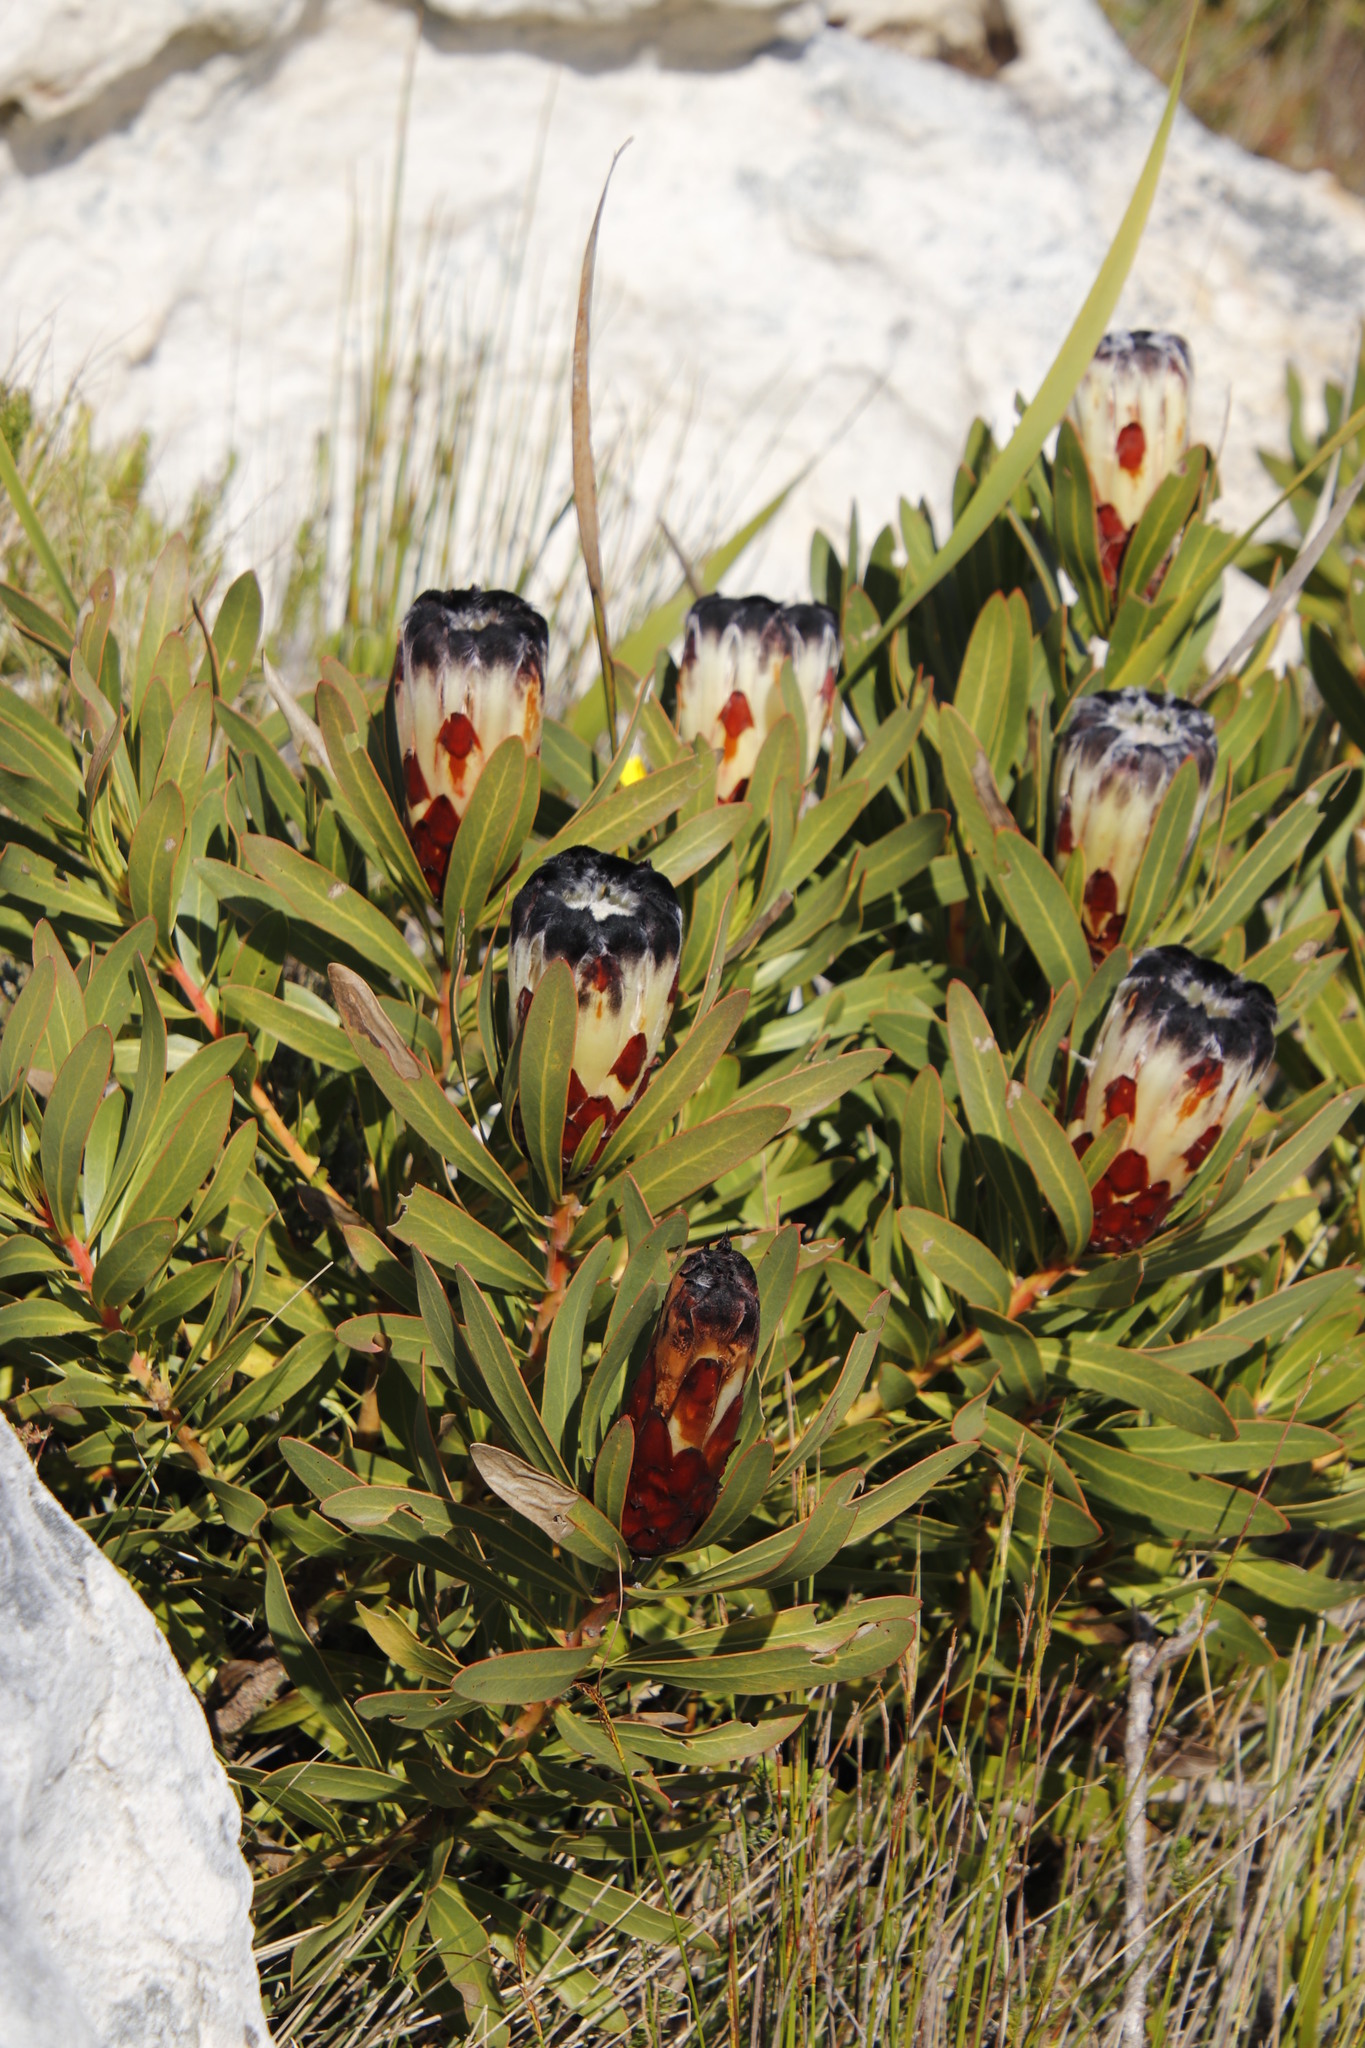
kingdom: Plantae
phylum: Tracheophyta
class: Magnoliopsida
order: Proteales
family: Proteaceae
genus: Protea
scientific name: Protea lepidocarpodendron
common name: Black-bearded protea
